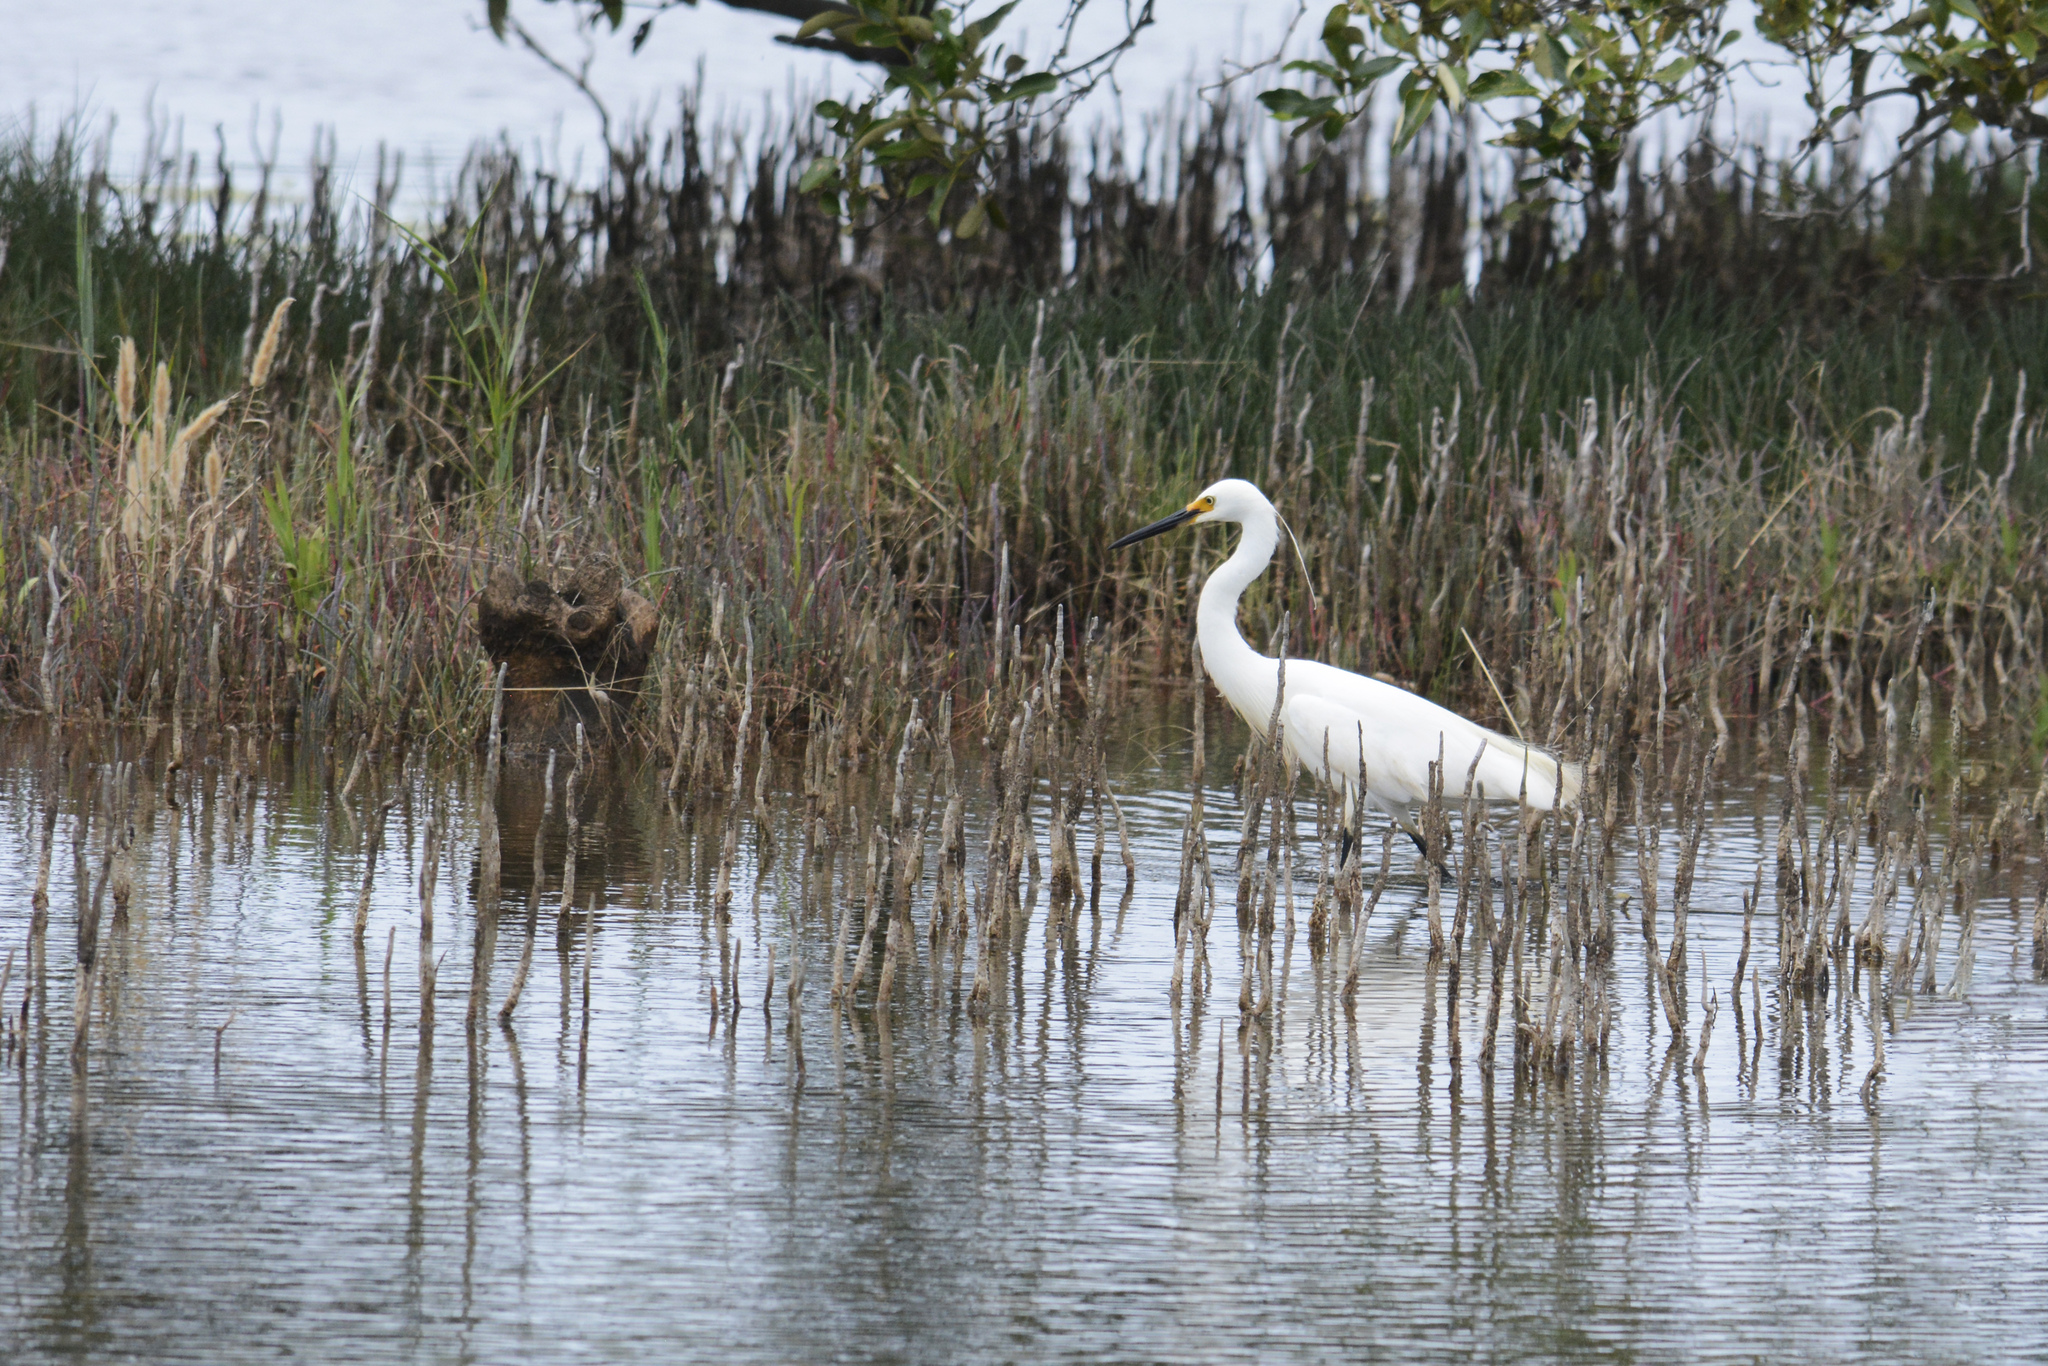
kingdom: Animalia
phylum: Chordata
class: Aves
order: Pelecaniformes
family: Ardeidae
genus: Egretta
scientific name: Egretta garzetta
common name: Little egret
